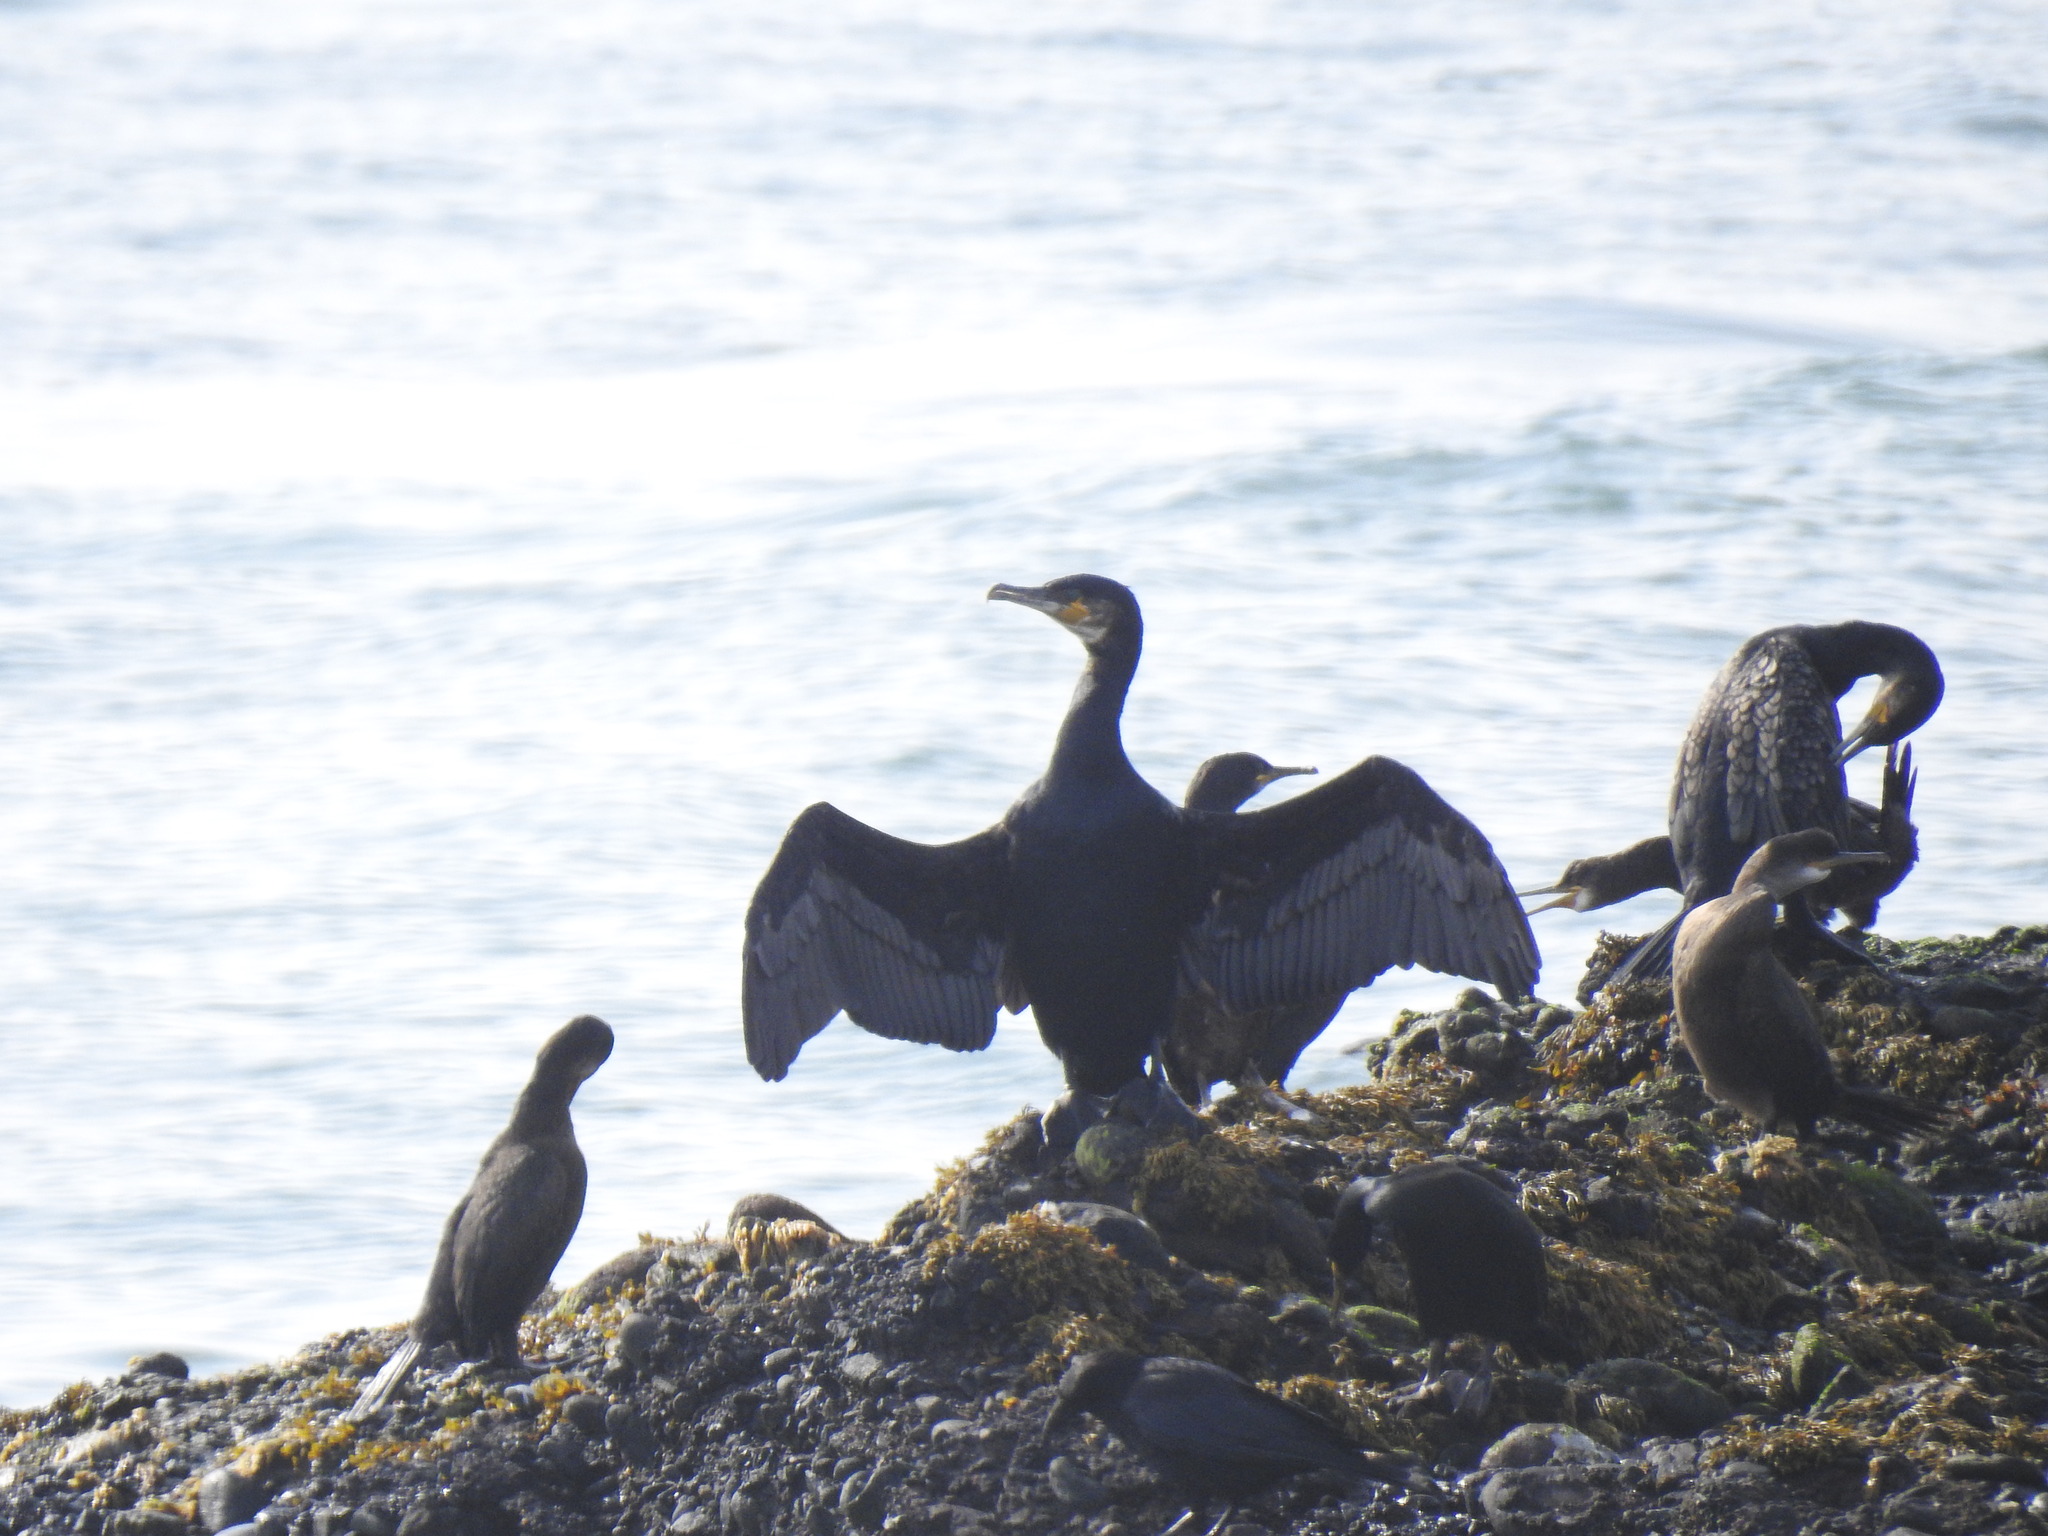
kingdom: Animalia
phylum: Chordata
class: Aves
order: Suliformes
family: Phalacrocoracidae
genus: Phalacrocorax
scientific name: Phalacrocorax carbo
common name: Great cormorant
